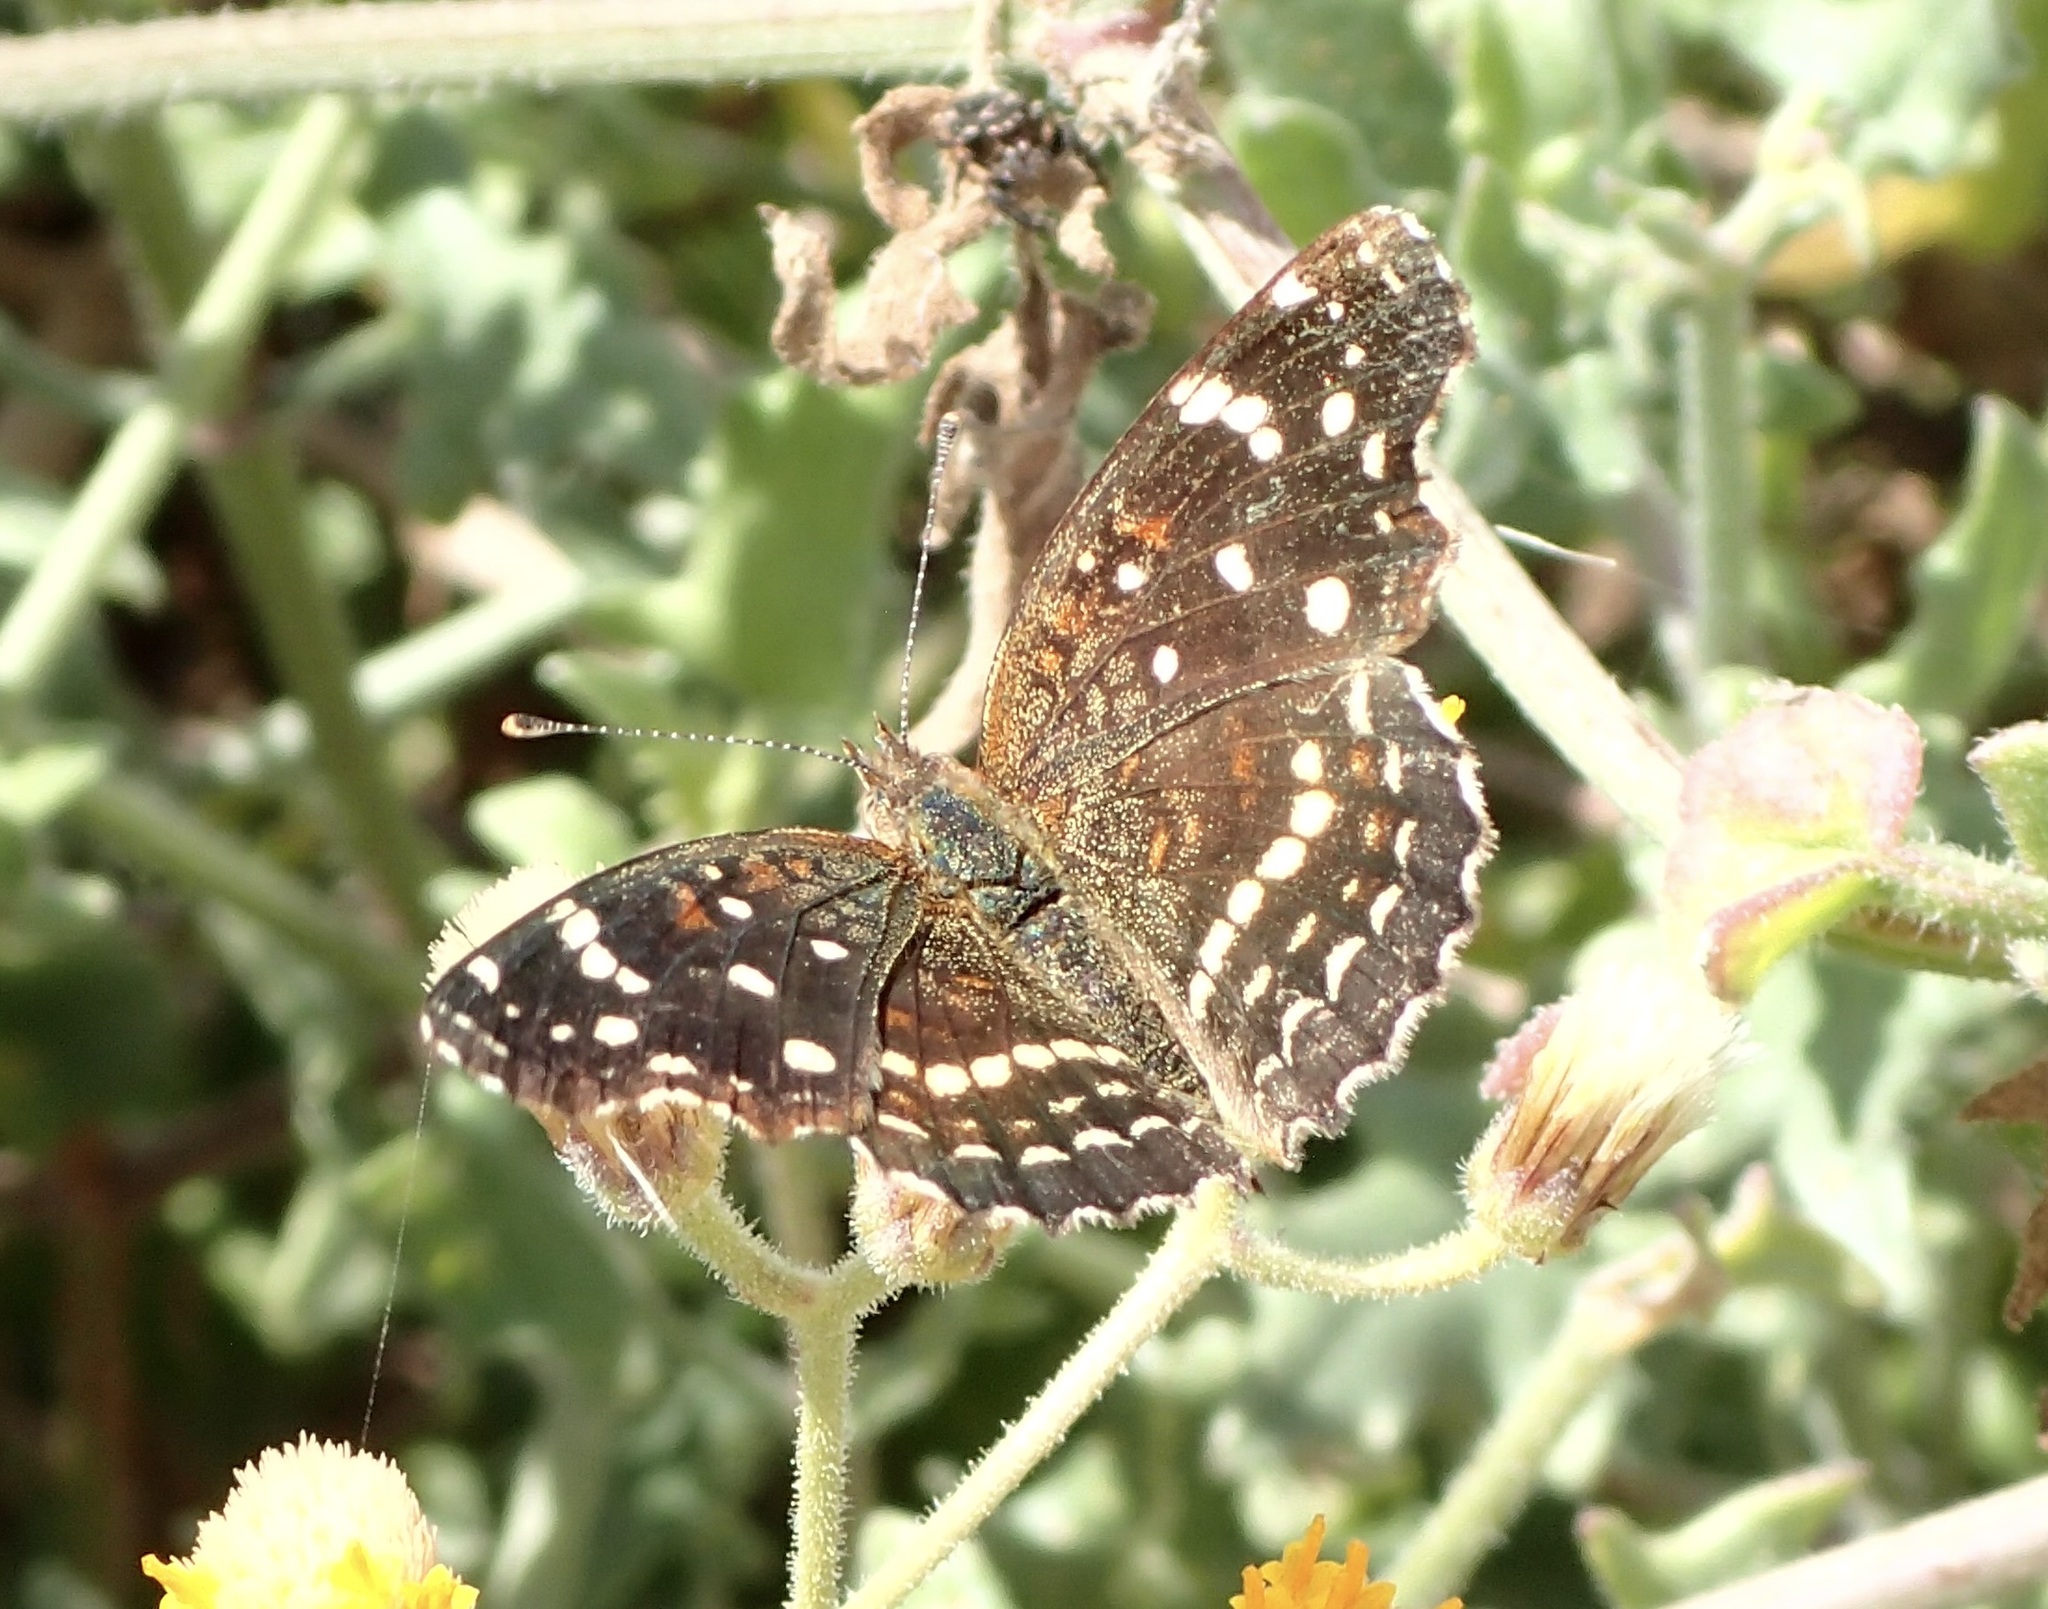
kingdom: Animalia
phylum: Arthropoda
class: Insecta
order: Lepidoptera
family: Nymphalidae
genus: Anthanassa
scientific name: Anthanassa texana
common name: Texan crescent
